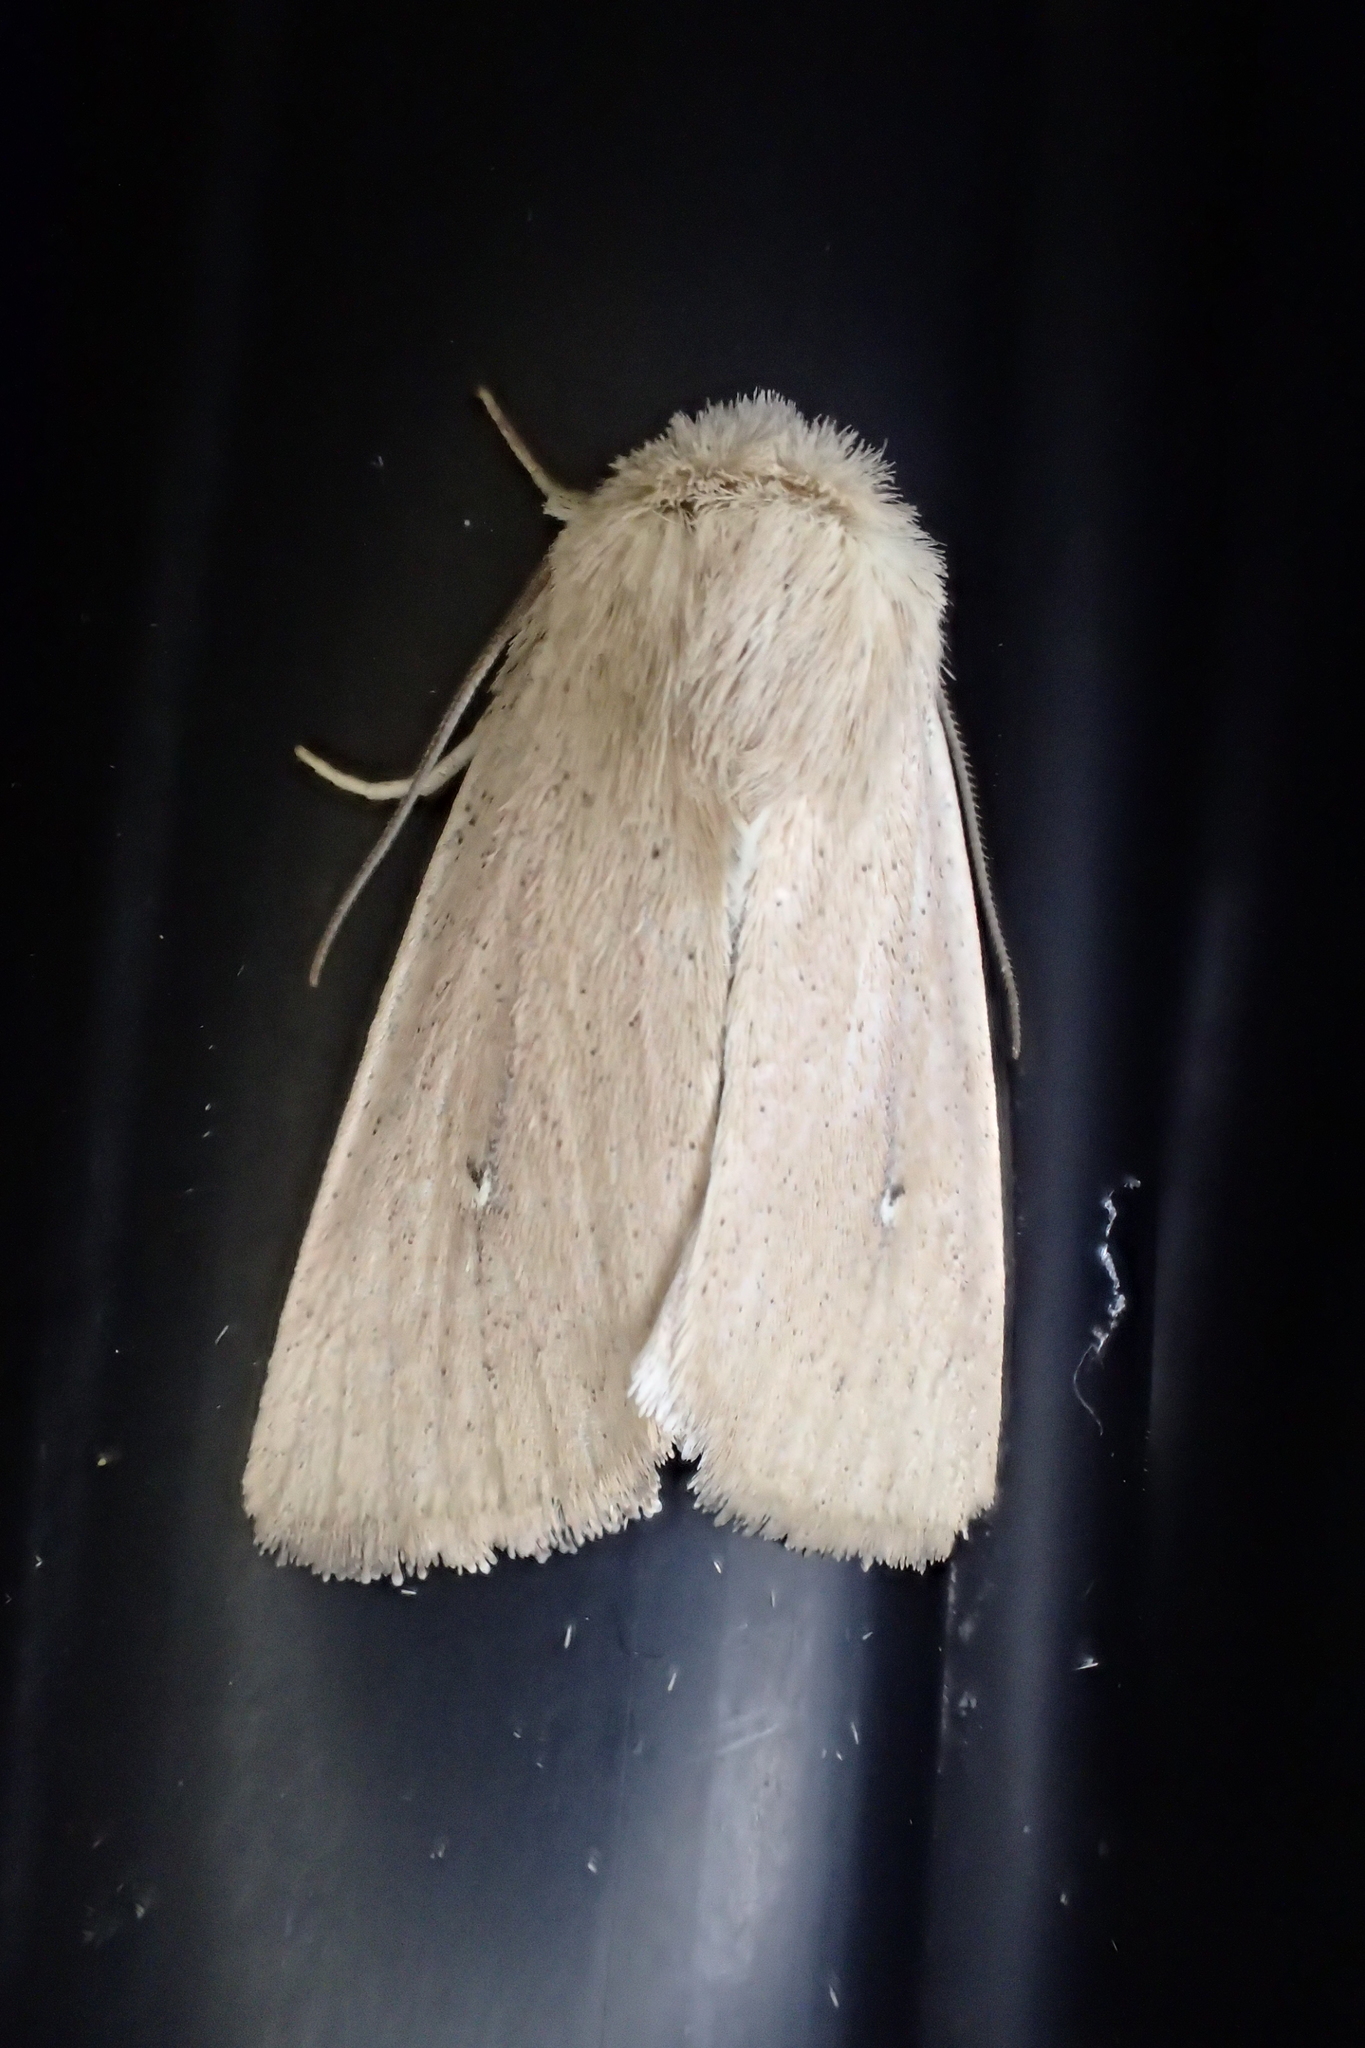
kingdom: Animalia
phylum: Arthropoda
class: Insecta
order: Lepidoptera
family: Noctuidae
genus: Mythimna
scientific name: Mythimna sicula
